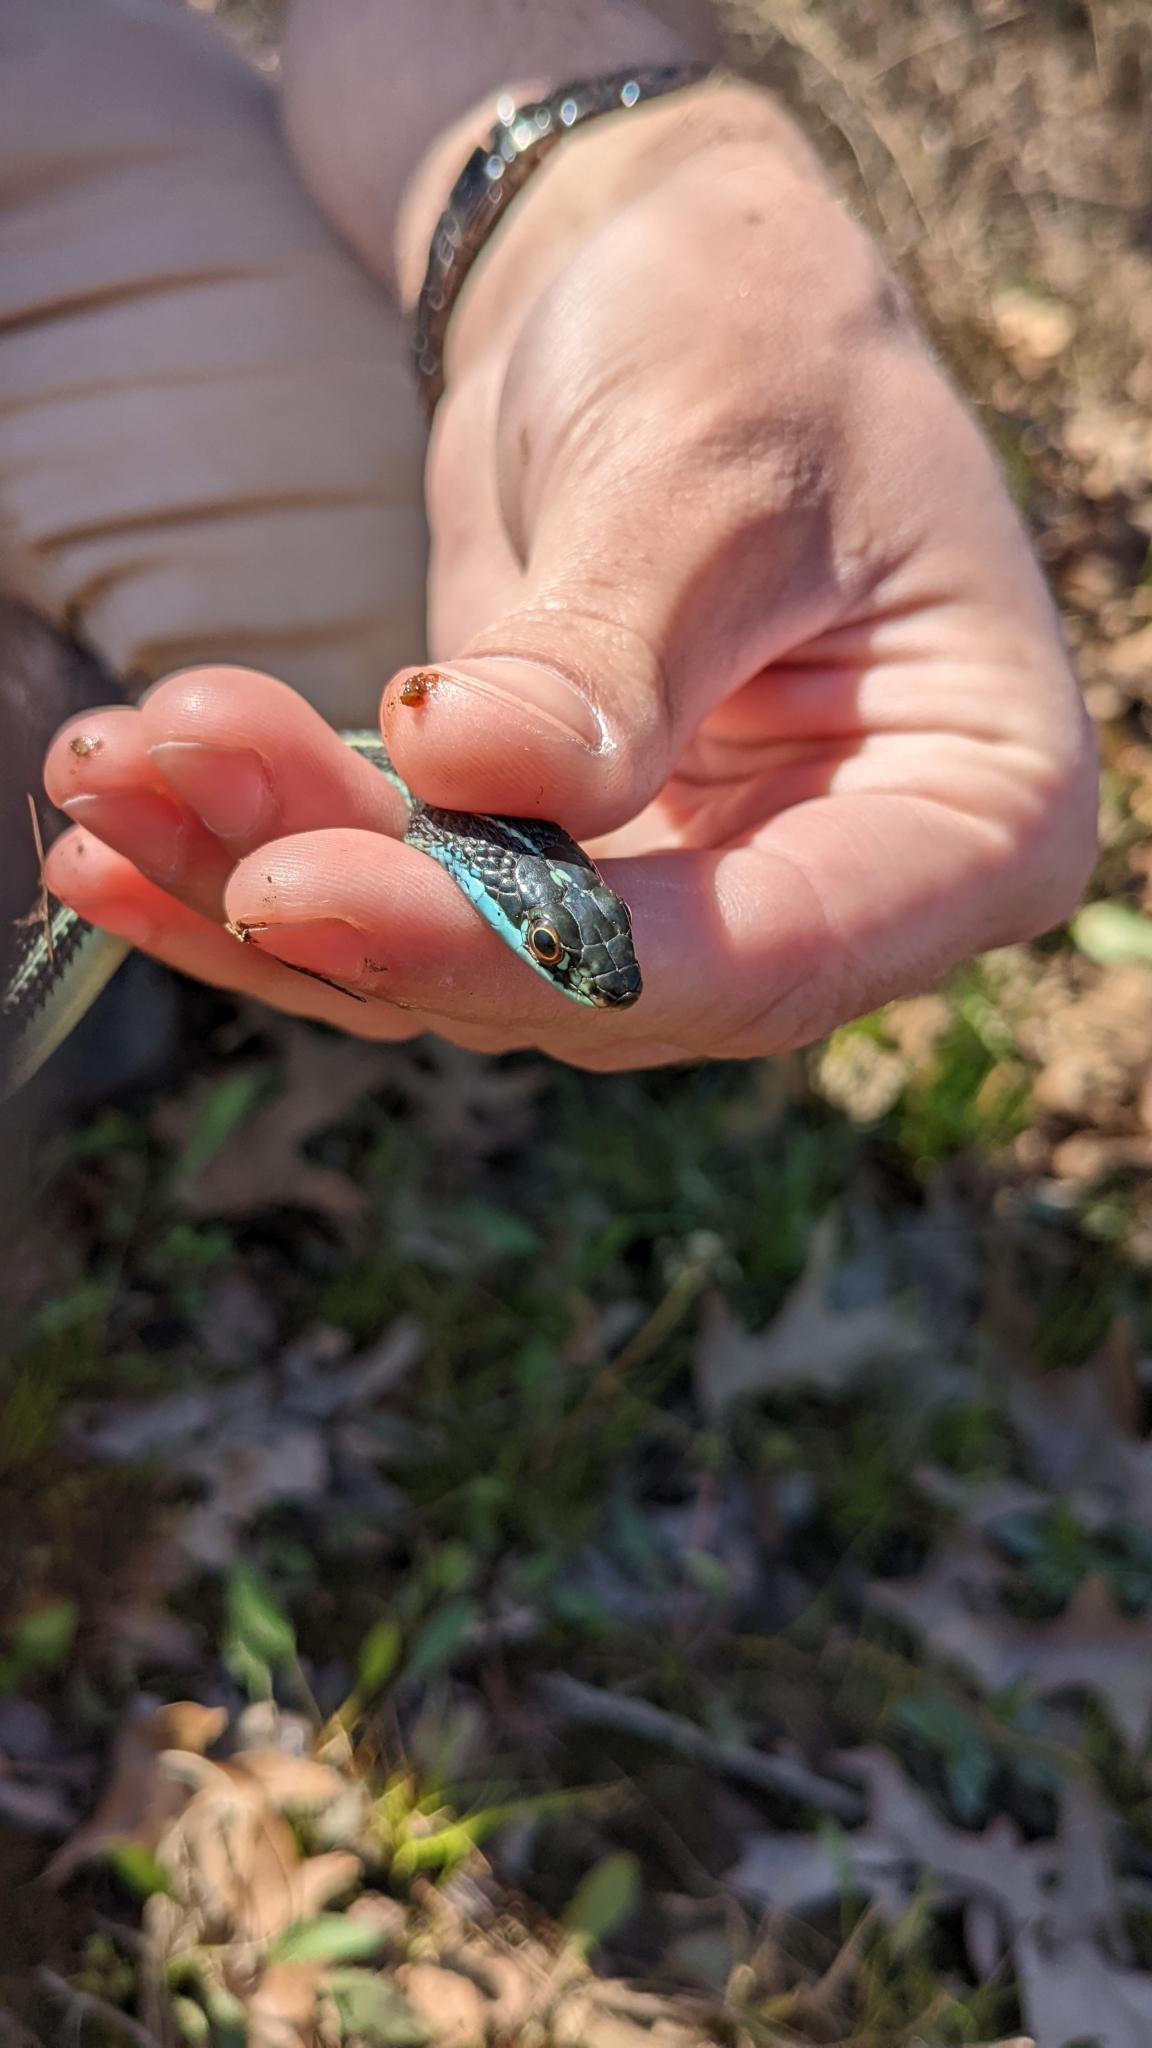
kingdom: Animalia
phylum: Chordata
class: Squamata
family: Colubridae
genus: Thamnophis
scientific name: Thamnophis proximus
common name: Western ribbon snake
